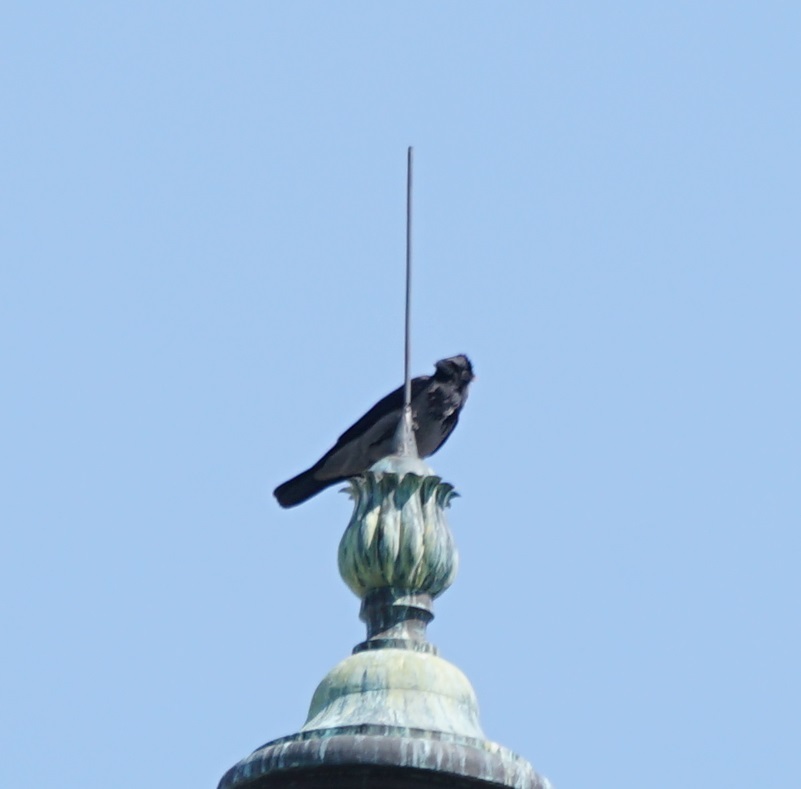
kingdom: Animalia
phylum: Chordata
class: Aves
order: Passeriformes
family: Corvidae
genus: Corvus
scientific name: Corvus cornix
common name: Hooded crow
